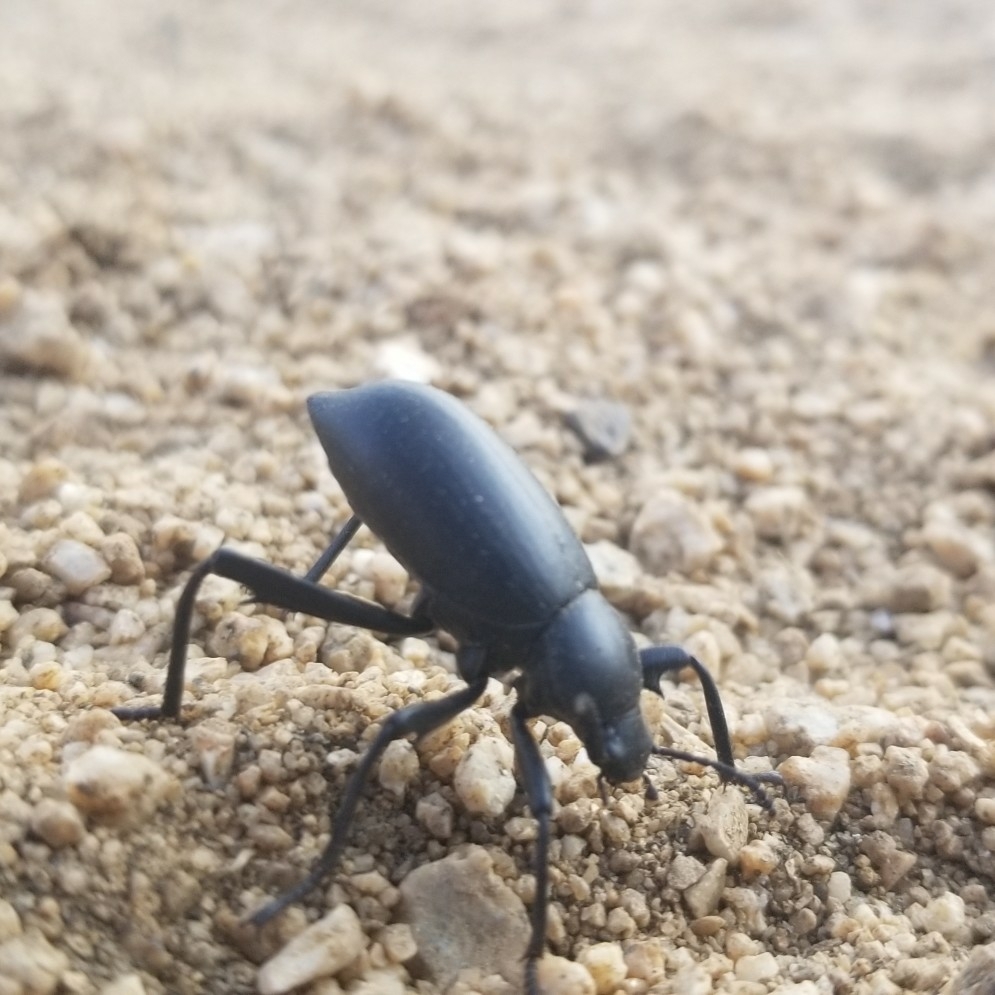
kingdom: Animalia
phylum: Arthropoda
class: Insecta
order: Coleoptera
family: Tenebrionidae
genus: Eleodes
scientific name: Eleodes armata
